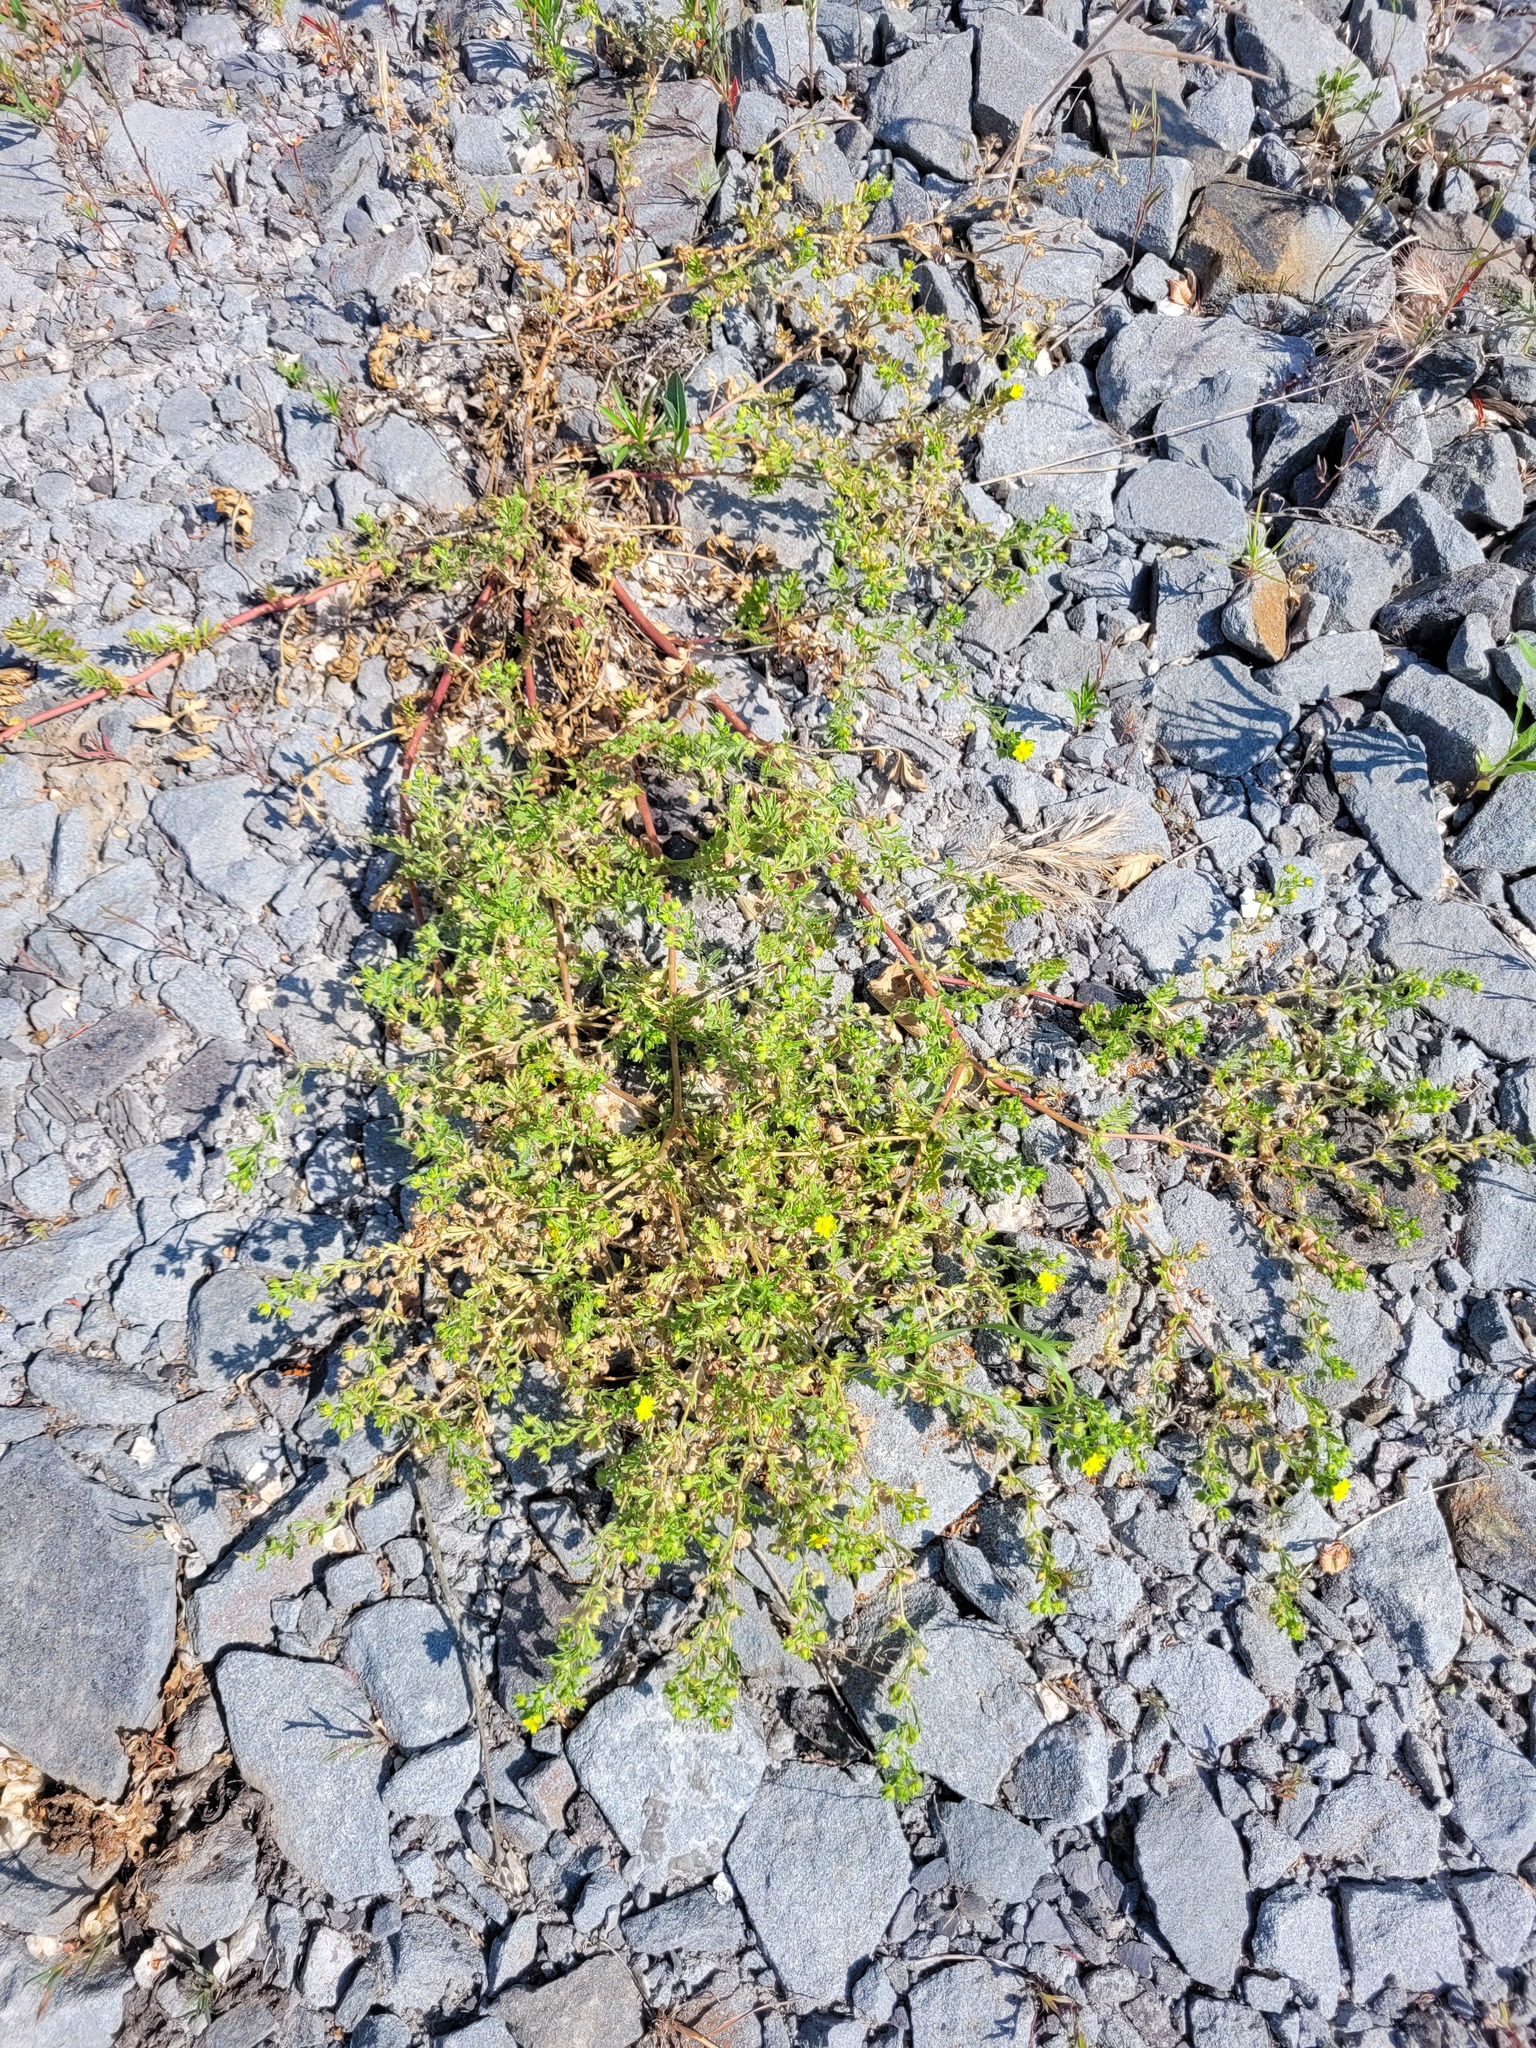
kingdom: Plantae
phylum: Tracheophyta
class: Magnoliopsida
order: Rosales
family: Rosaceae
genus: Potentilla
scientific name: Potentilla supina
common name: Prostrate cinquefoil
